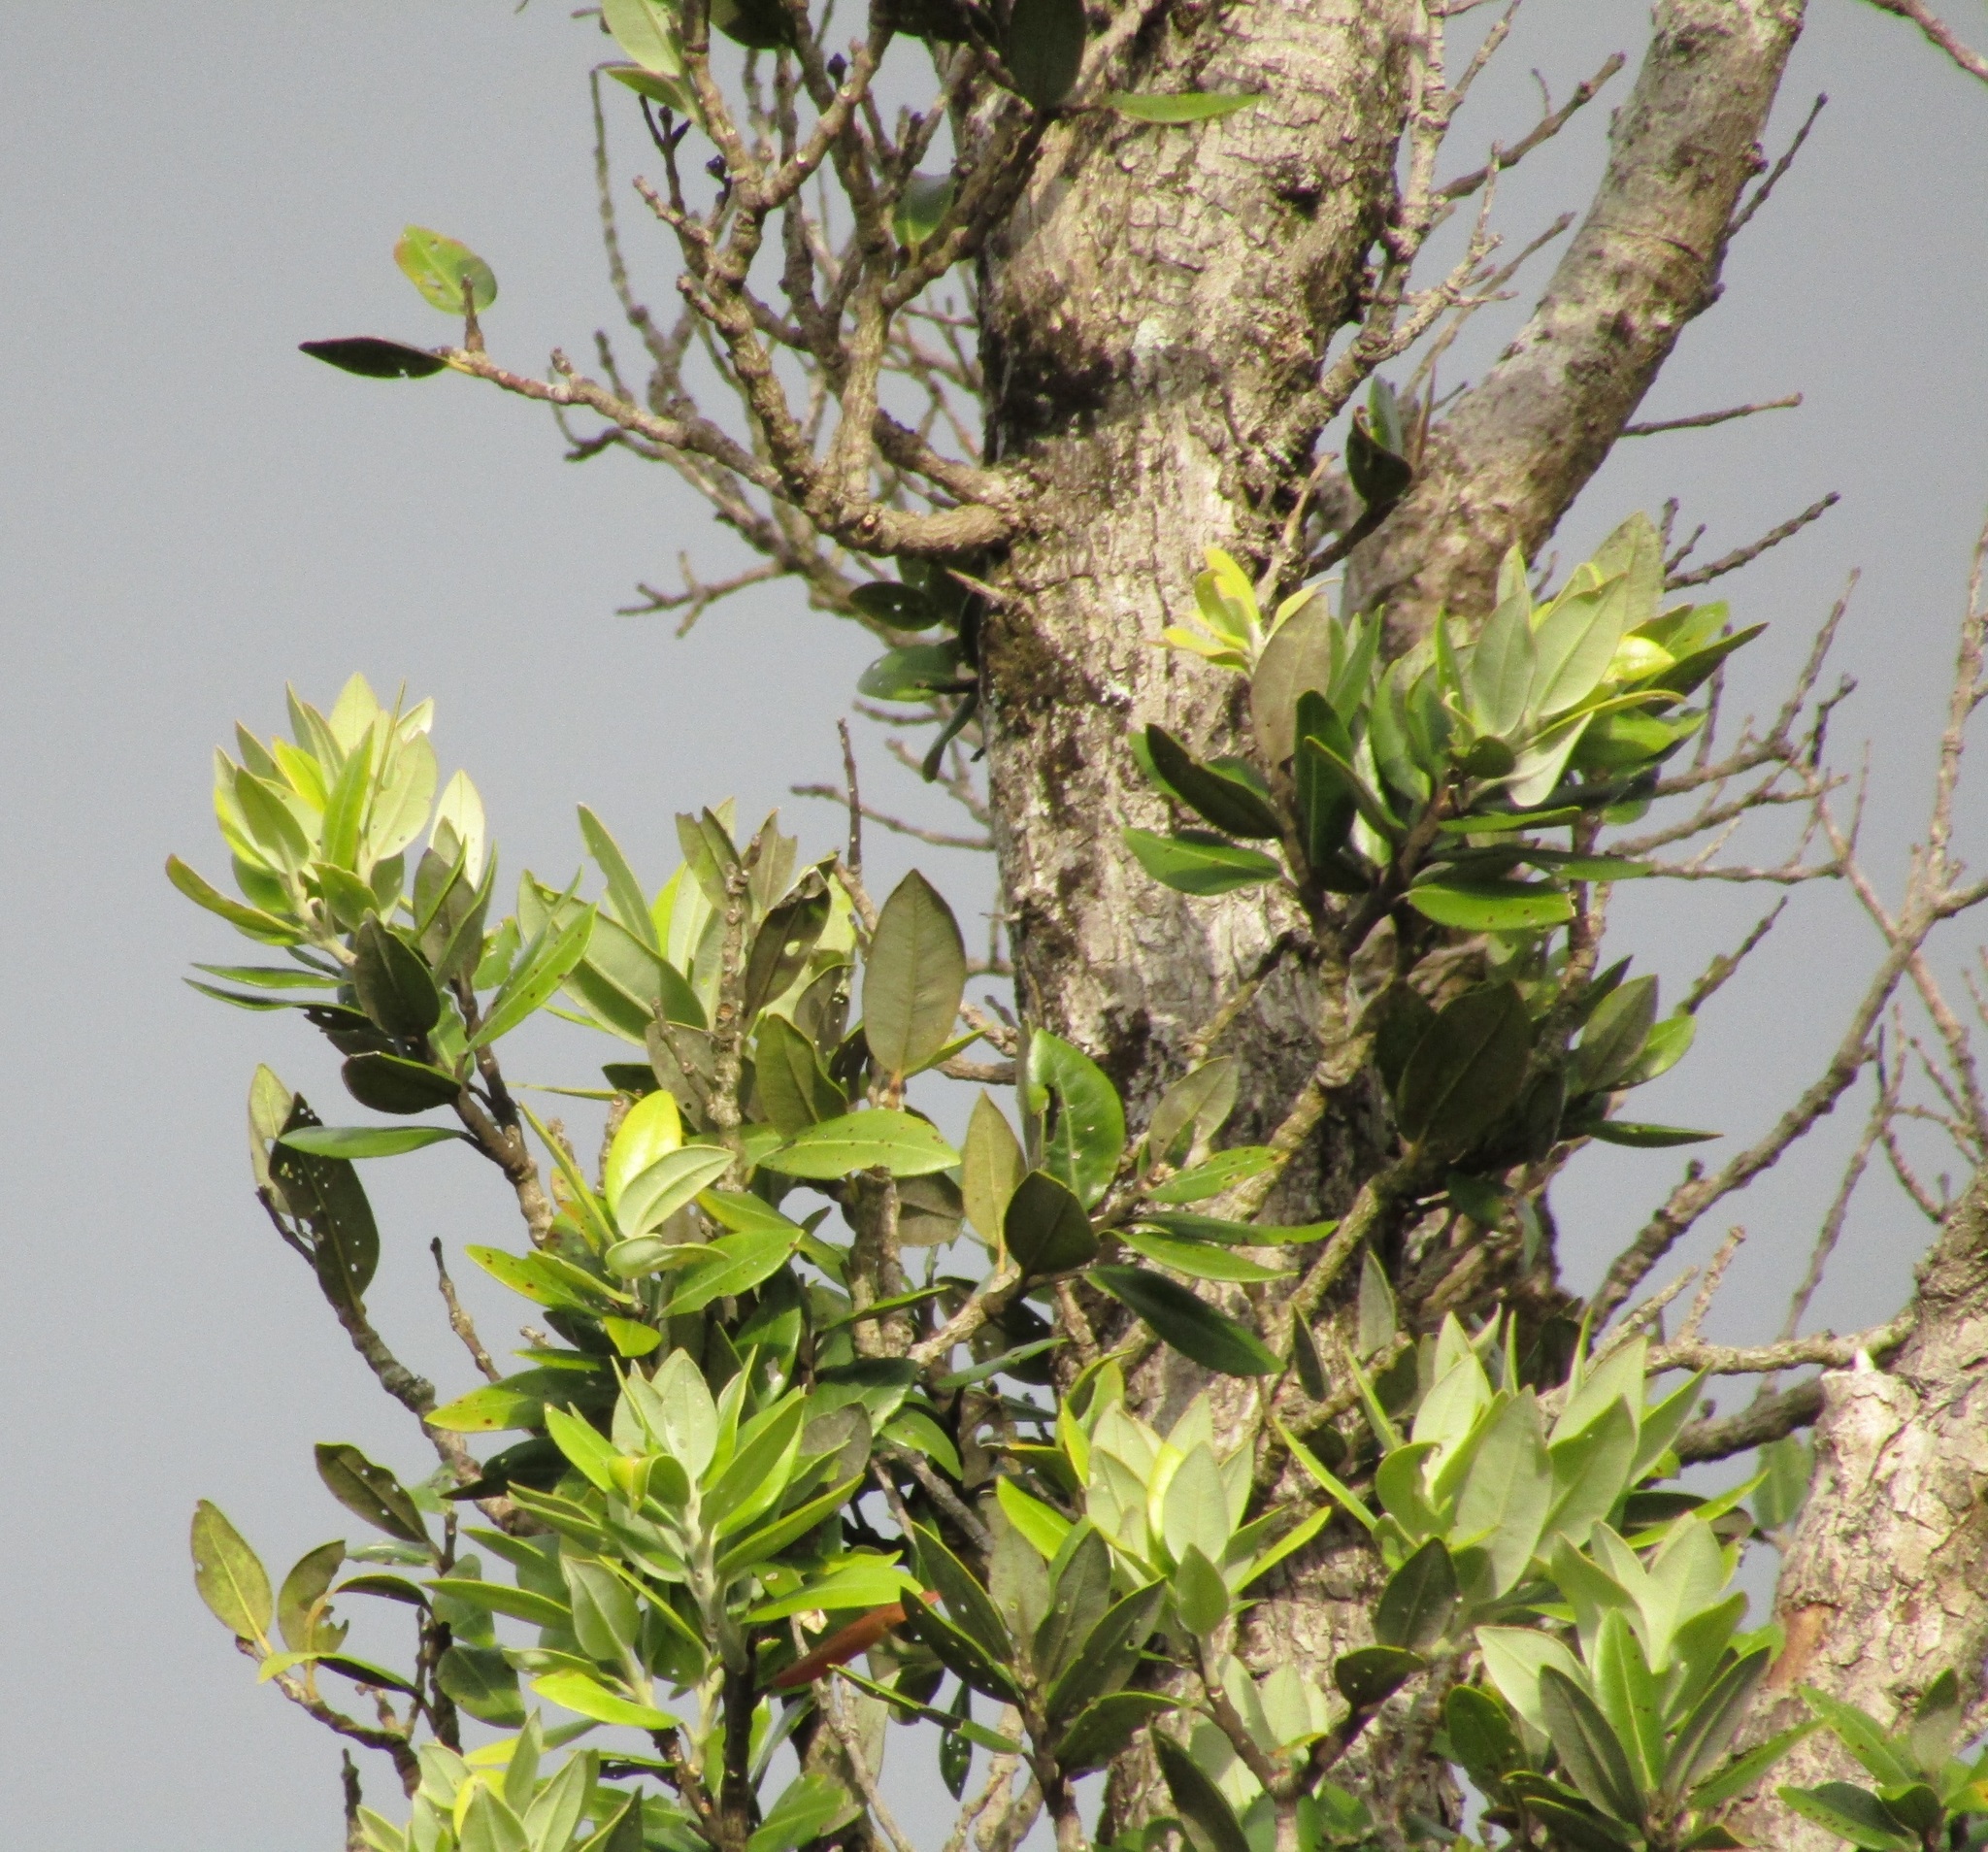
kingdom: Plantae
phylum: Tracheophyta
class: Magnoliopsida
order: Myrtales
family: Myrtaceae
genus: Metrosideros
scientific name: Metrosideros excelsa
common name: New zealand christmastree
